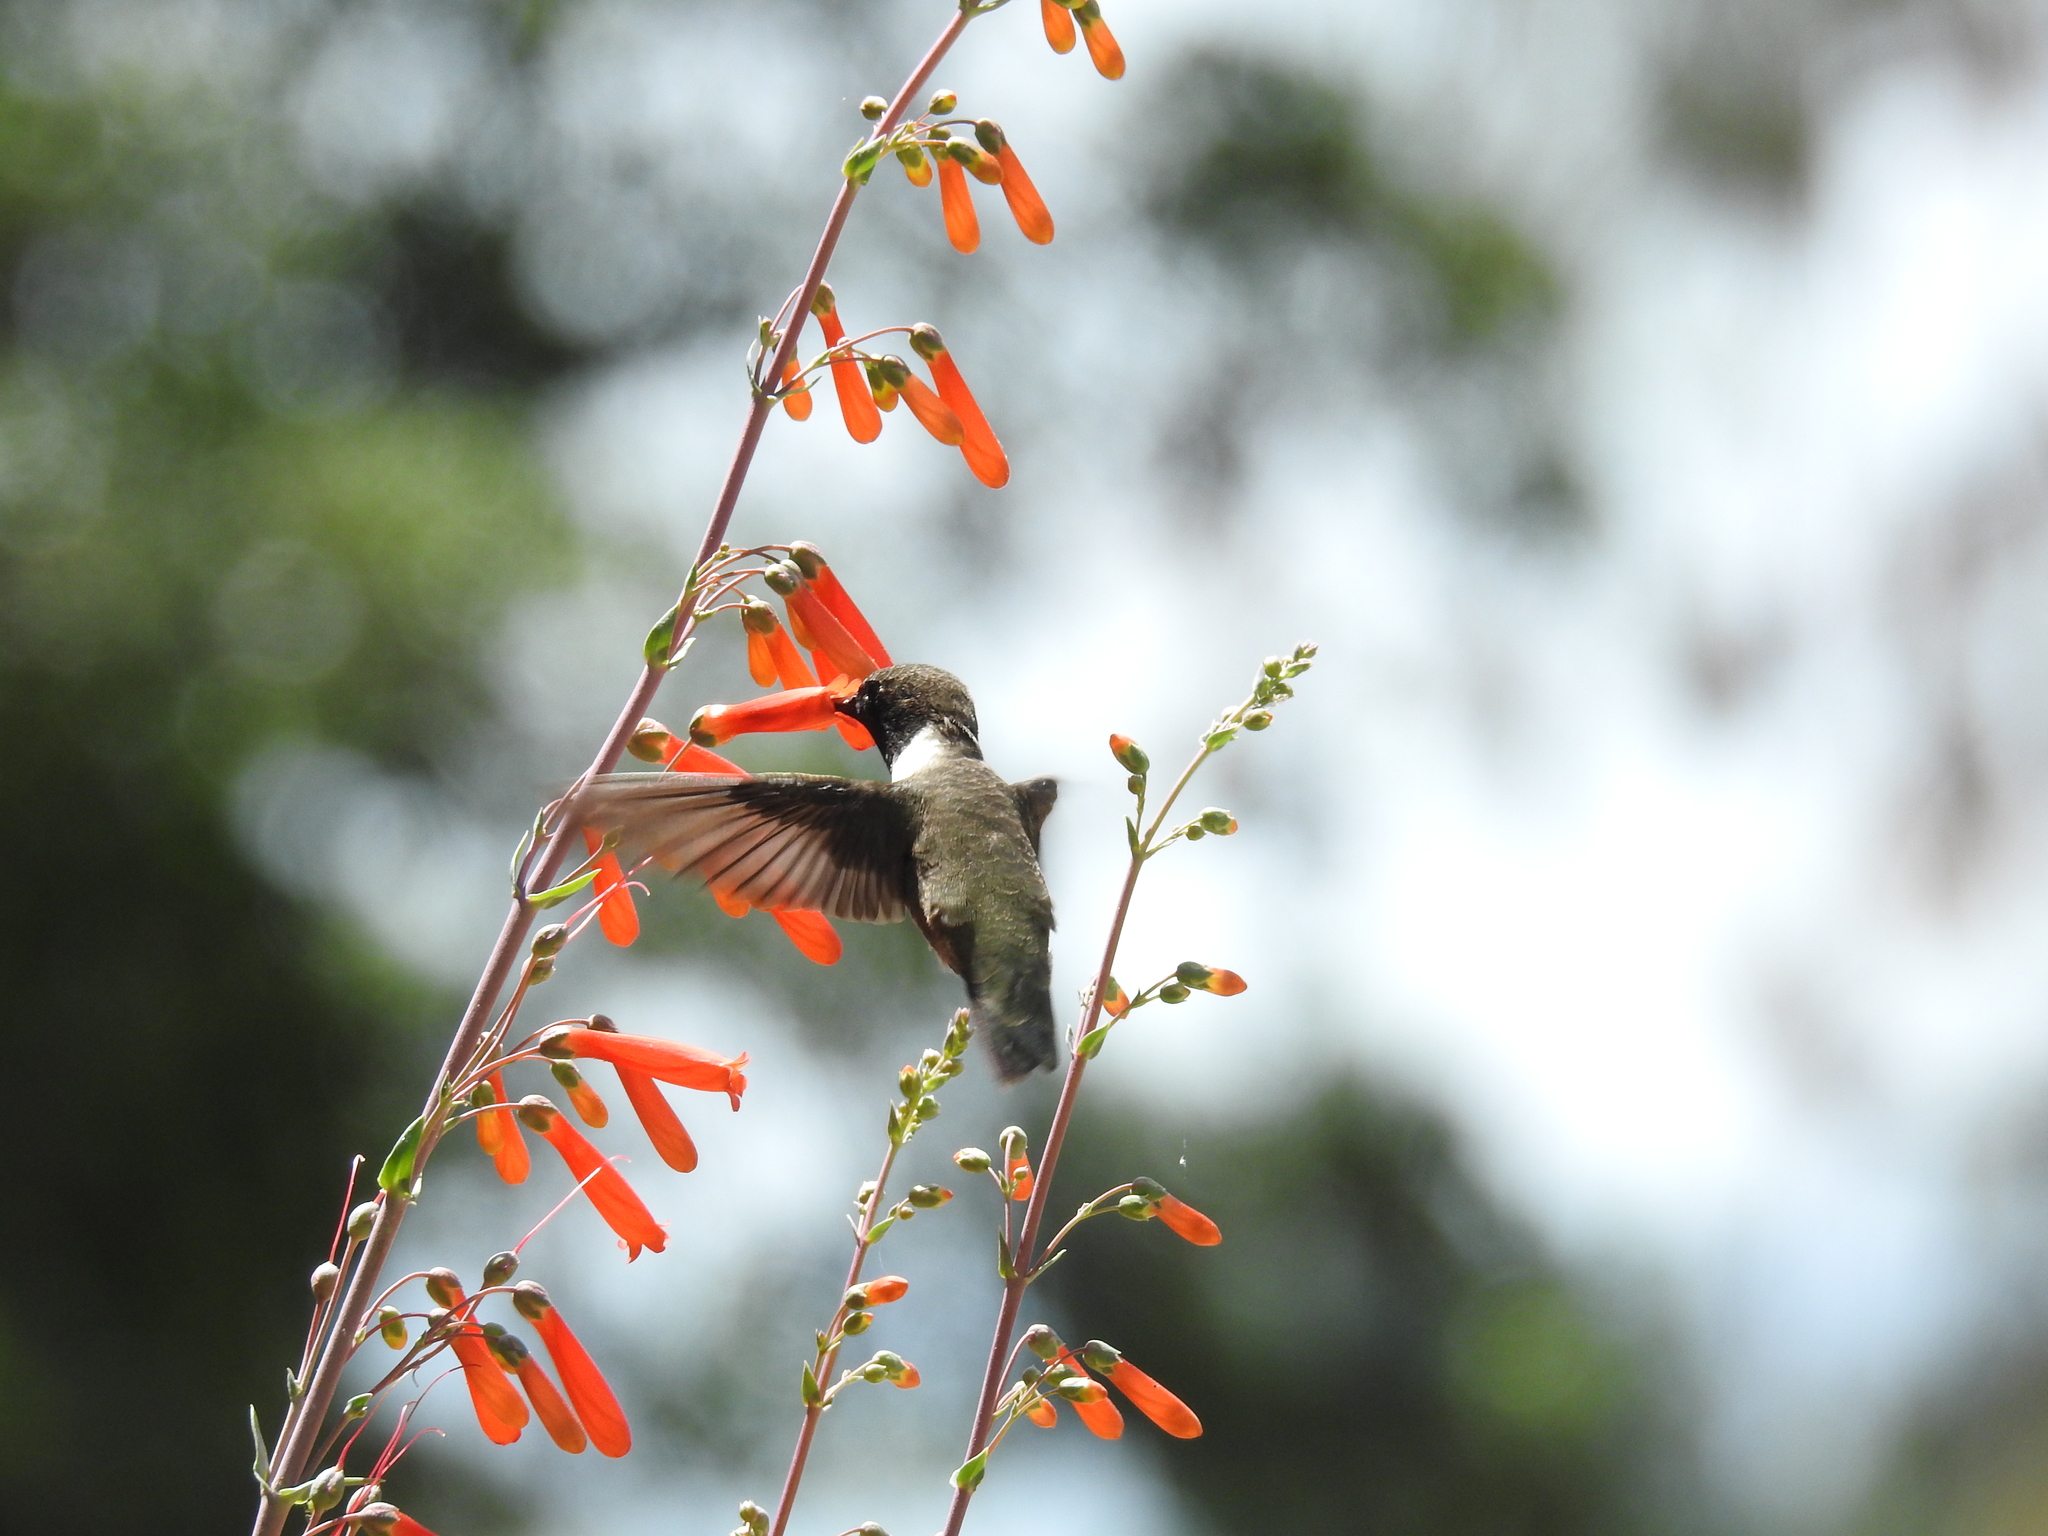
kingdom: Animalia
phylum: Chordata
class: Aves
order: Apodiformes
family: Trochilidae
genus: Archilochus
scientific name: Archilochus alexandri
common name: Black-chinned hummingbird
